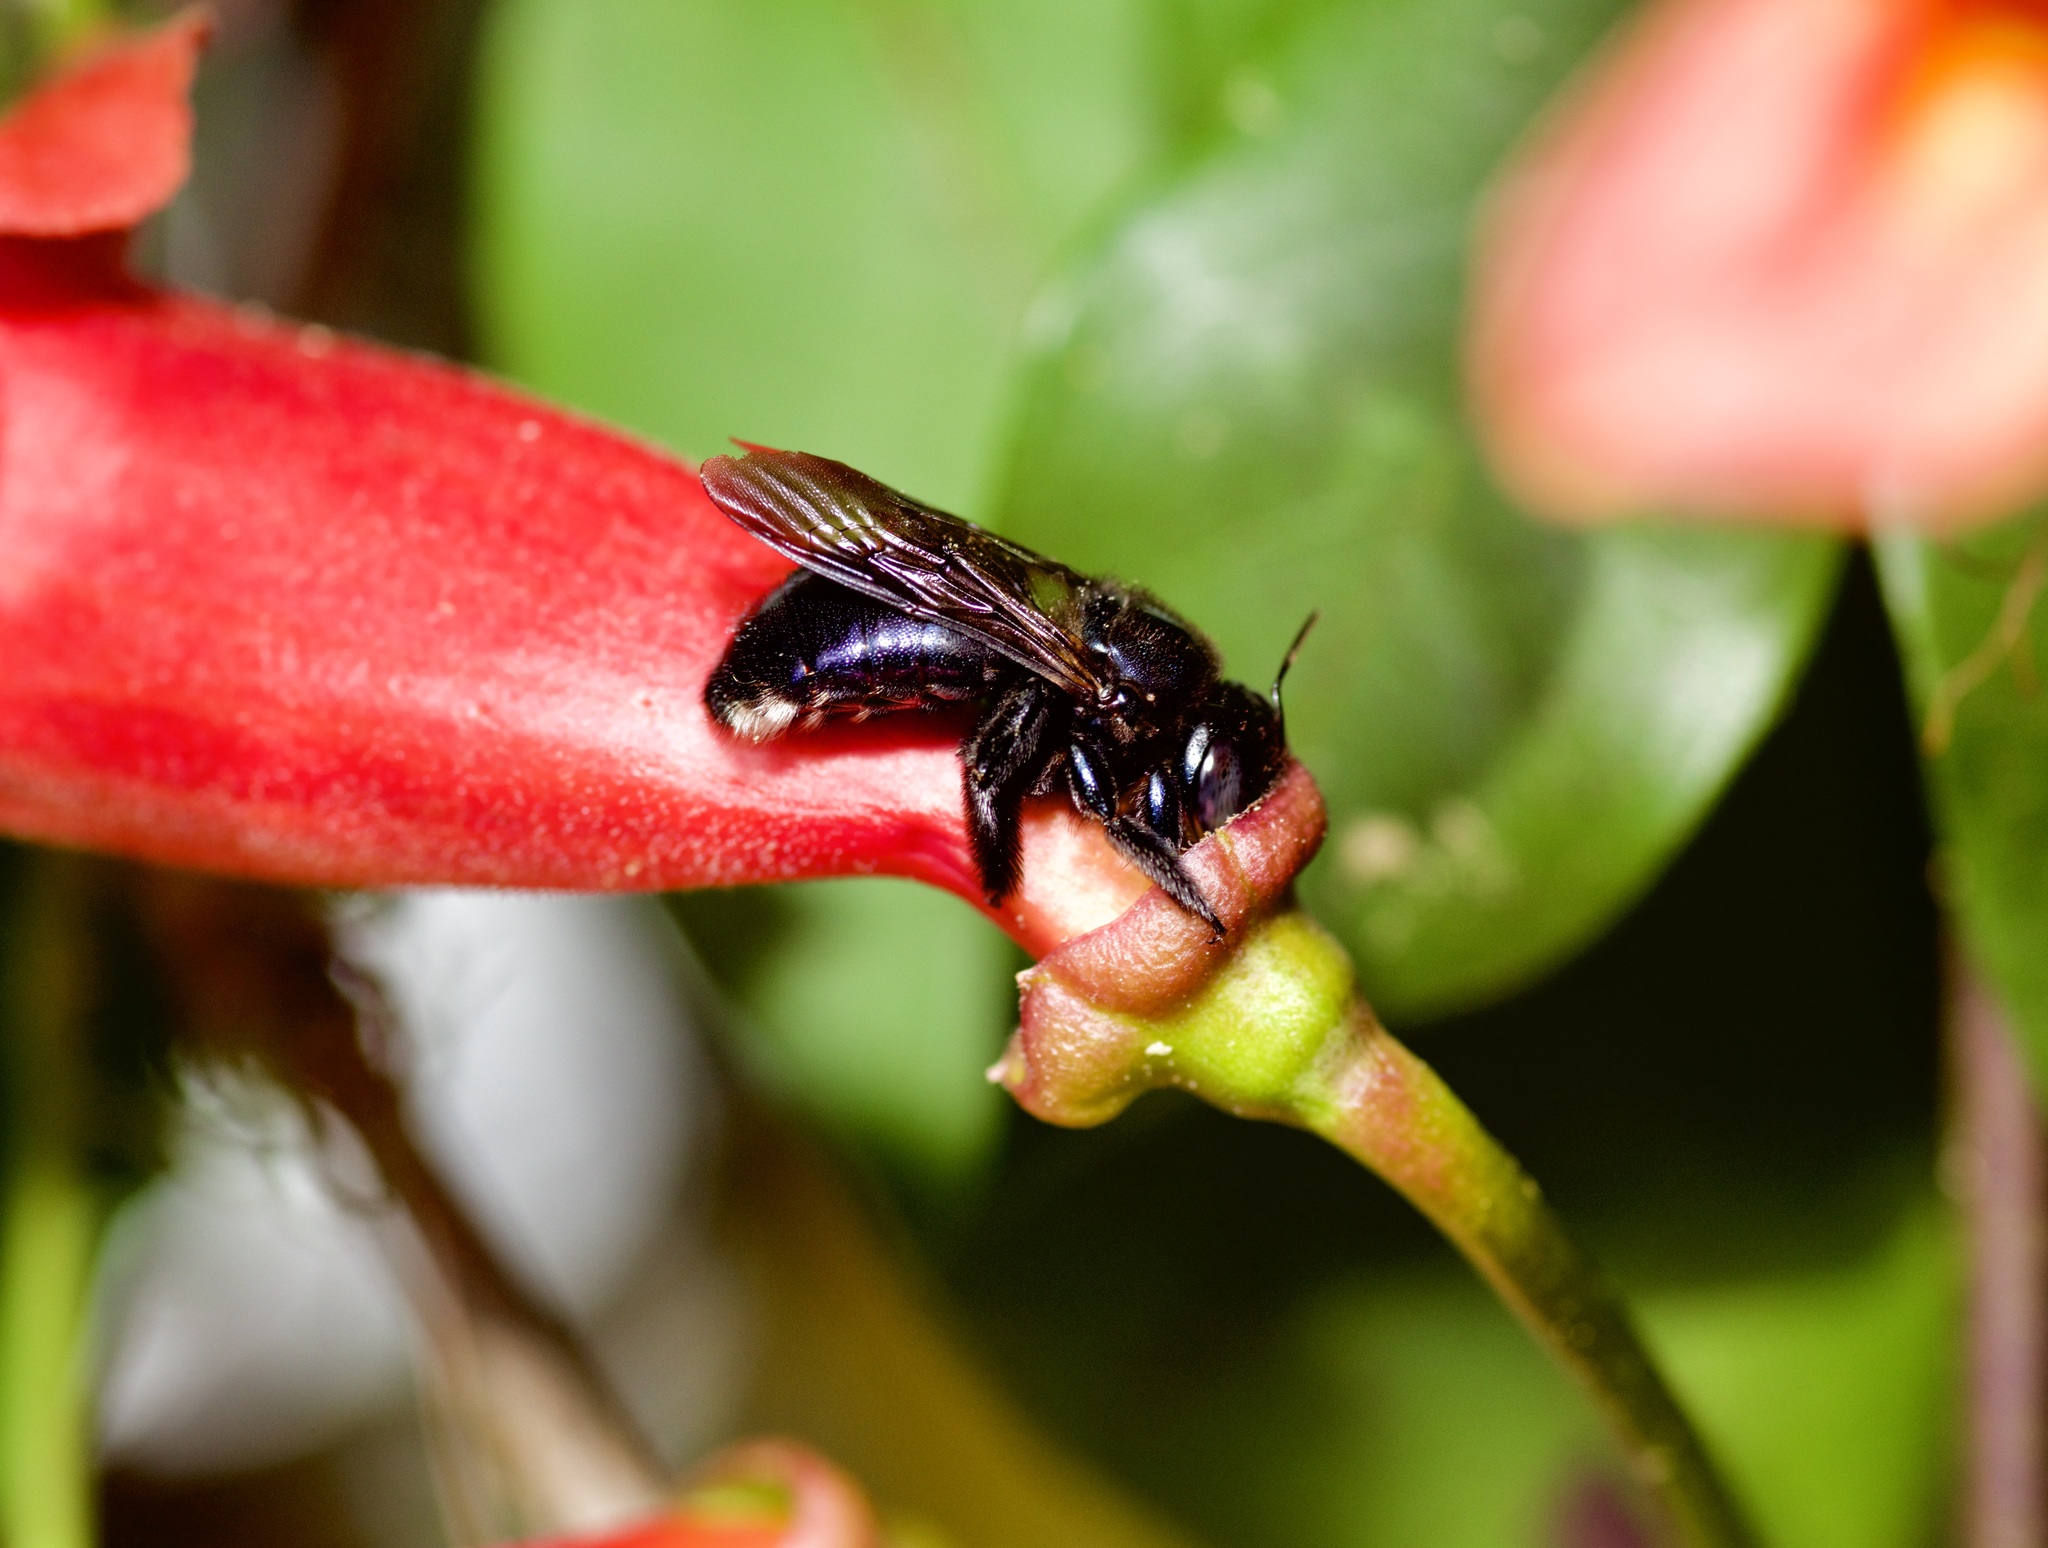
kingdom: Animalia
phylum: Arthropoda
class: Insecta
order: Hymenoptera
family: Apidae
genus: Xylocopa
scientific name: Xylocopa micans
